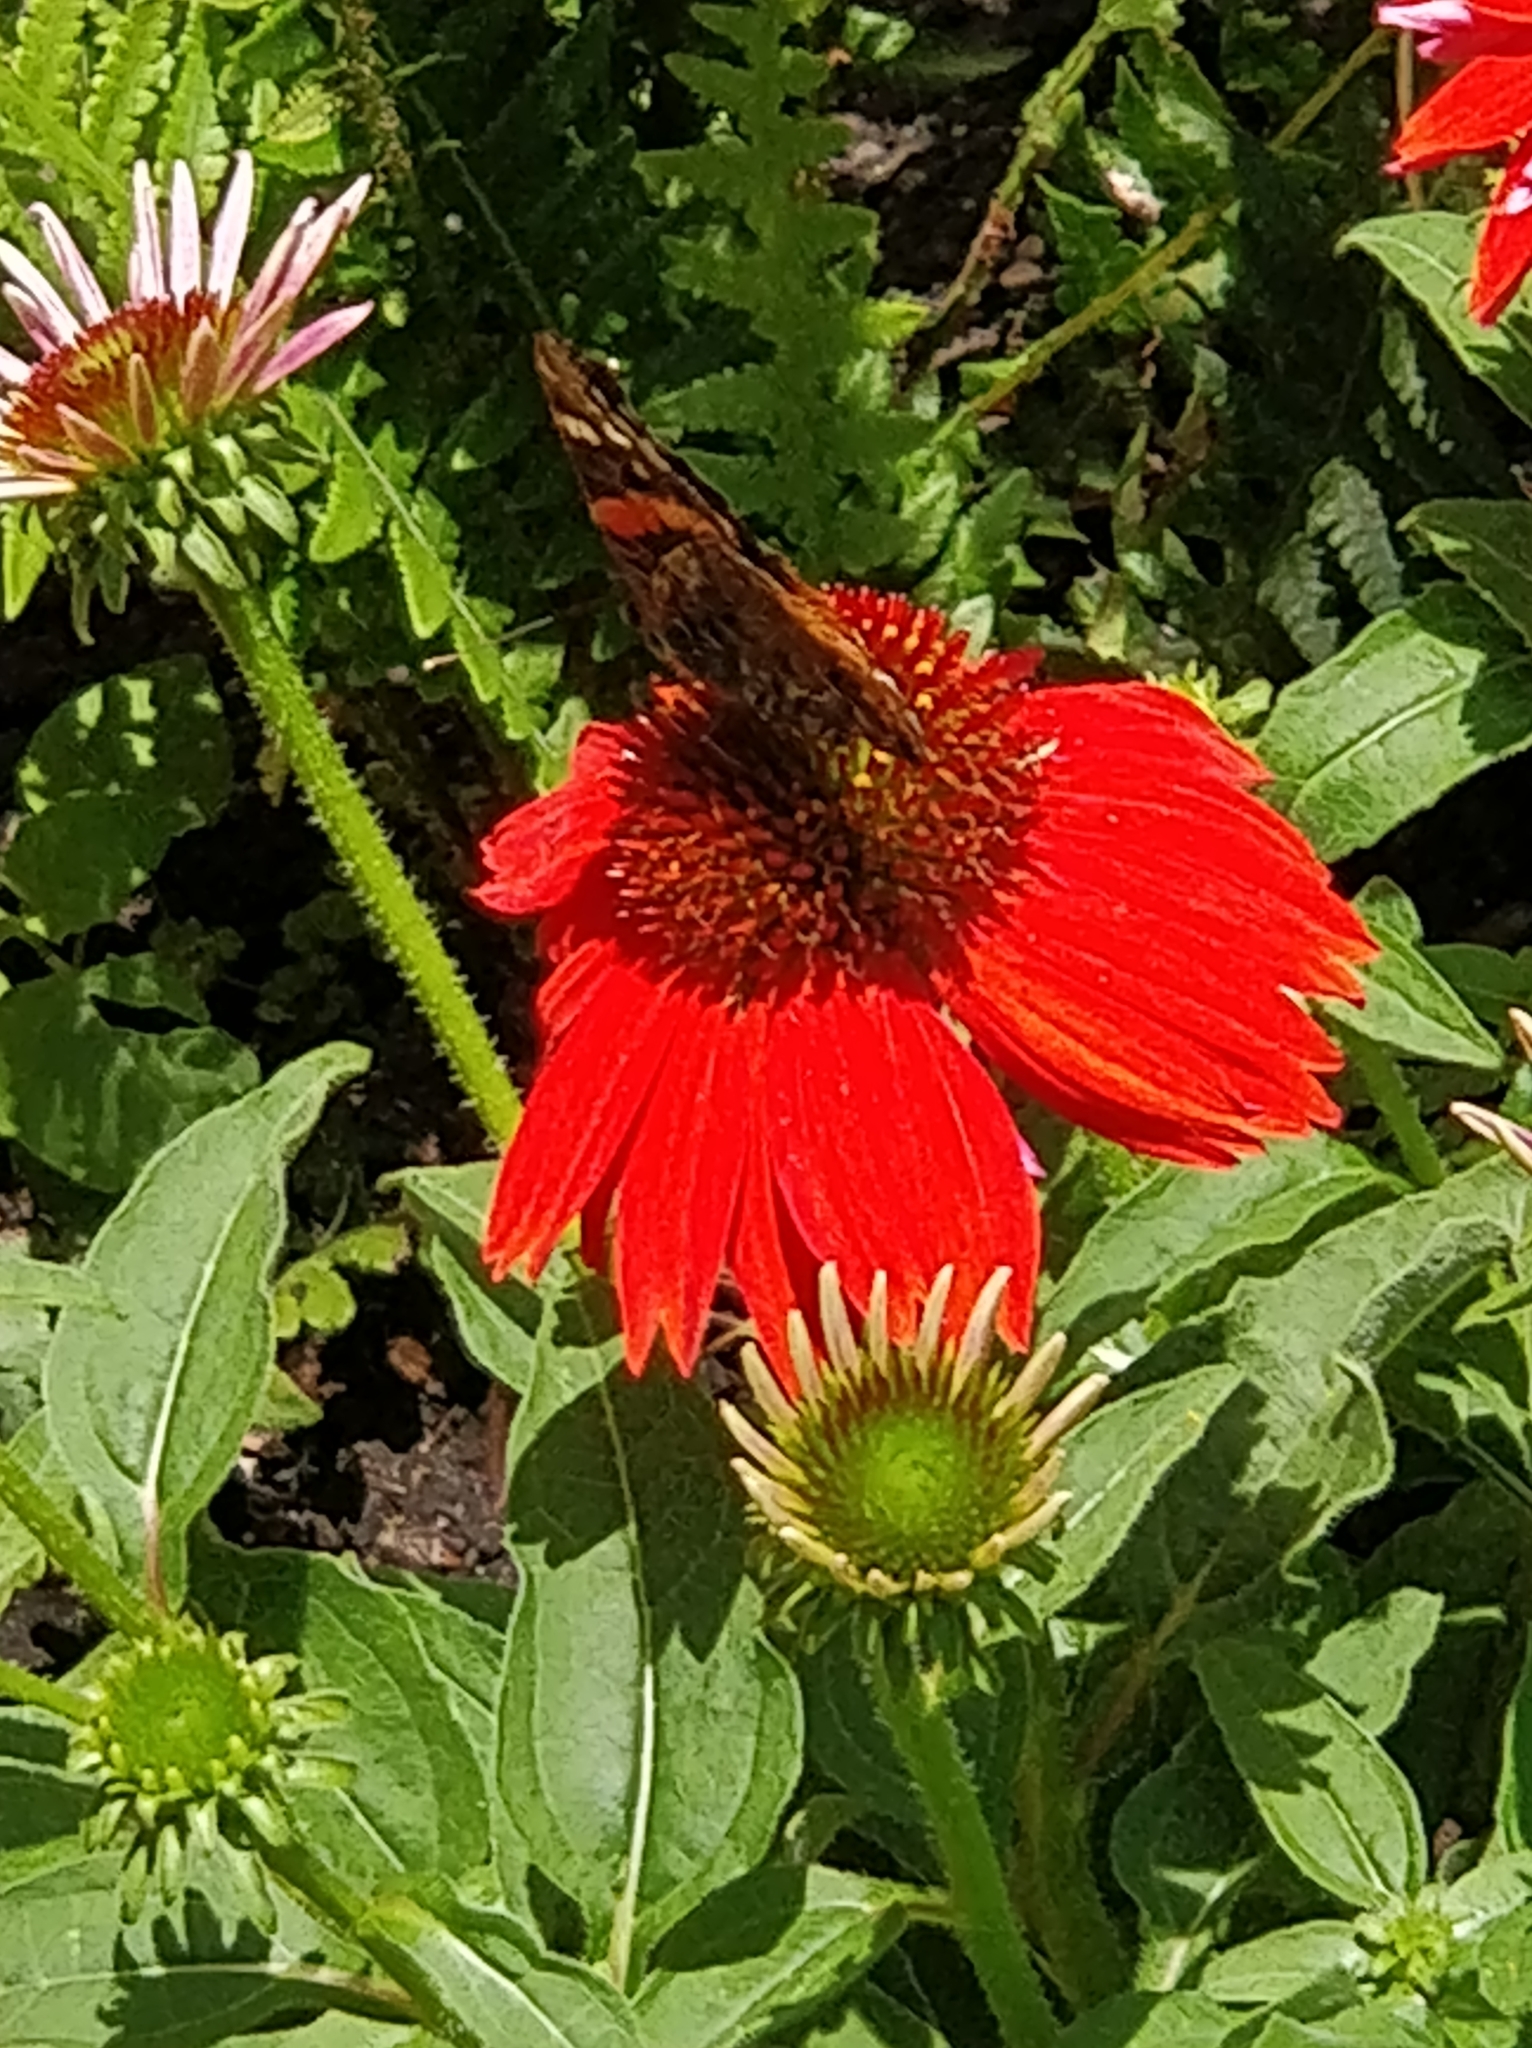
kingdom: Animalia
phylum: Arthropoda
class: Insecta
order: Lepidoptera
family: Nymphalidae
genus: Vanessa
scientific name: Vanessa atalanta
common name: Red admiral
